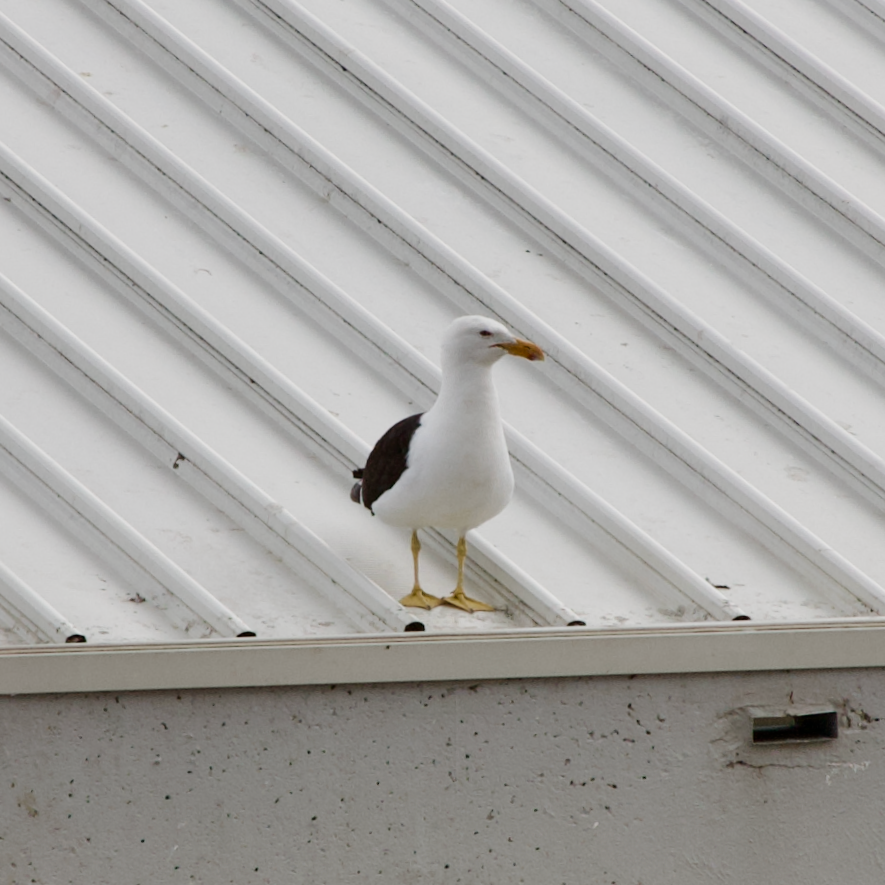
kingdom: Animalia
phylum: Chordata
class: Aves
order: Charadriiformes
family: Laridae
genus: Larus
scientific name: Larus dominicanus
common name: Kelp gull
